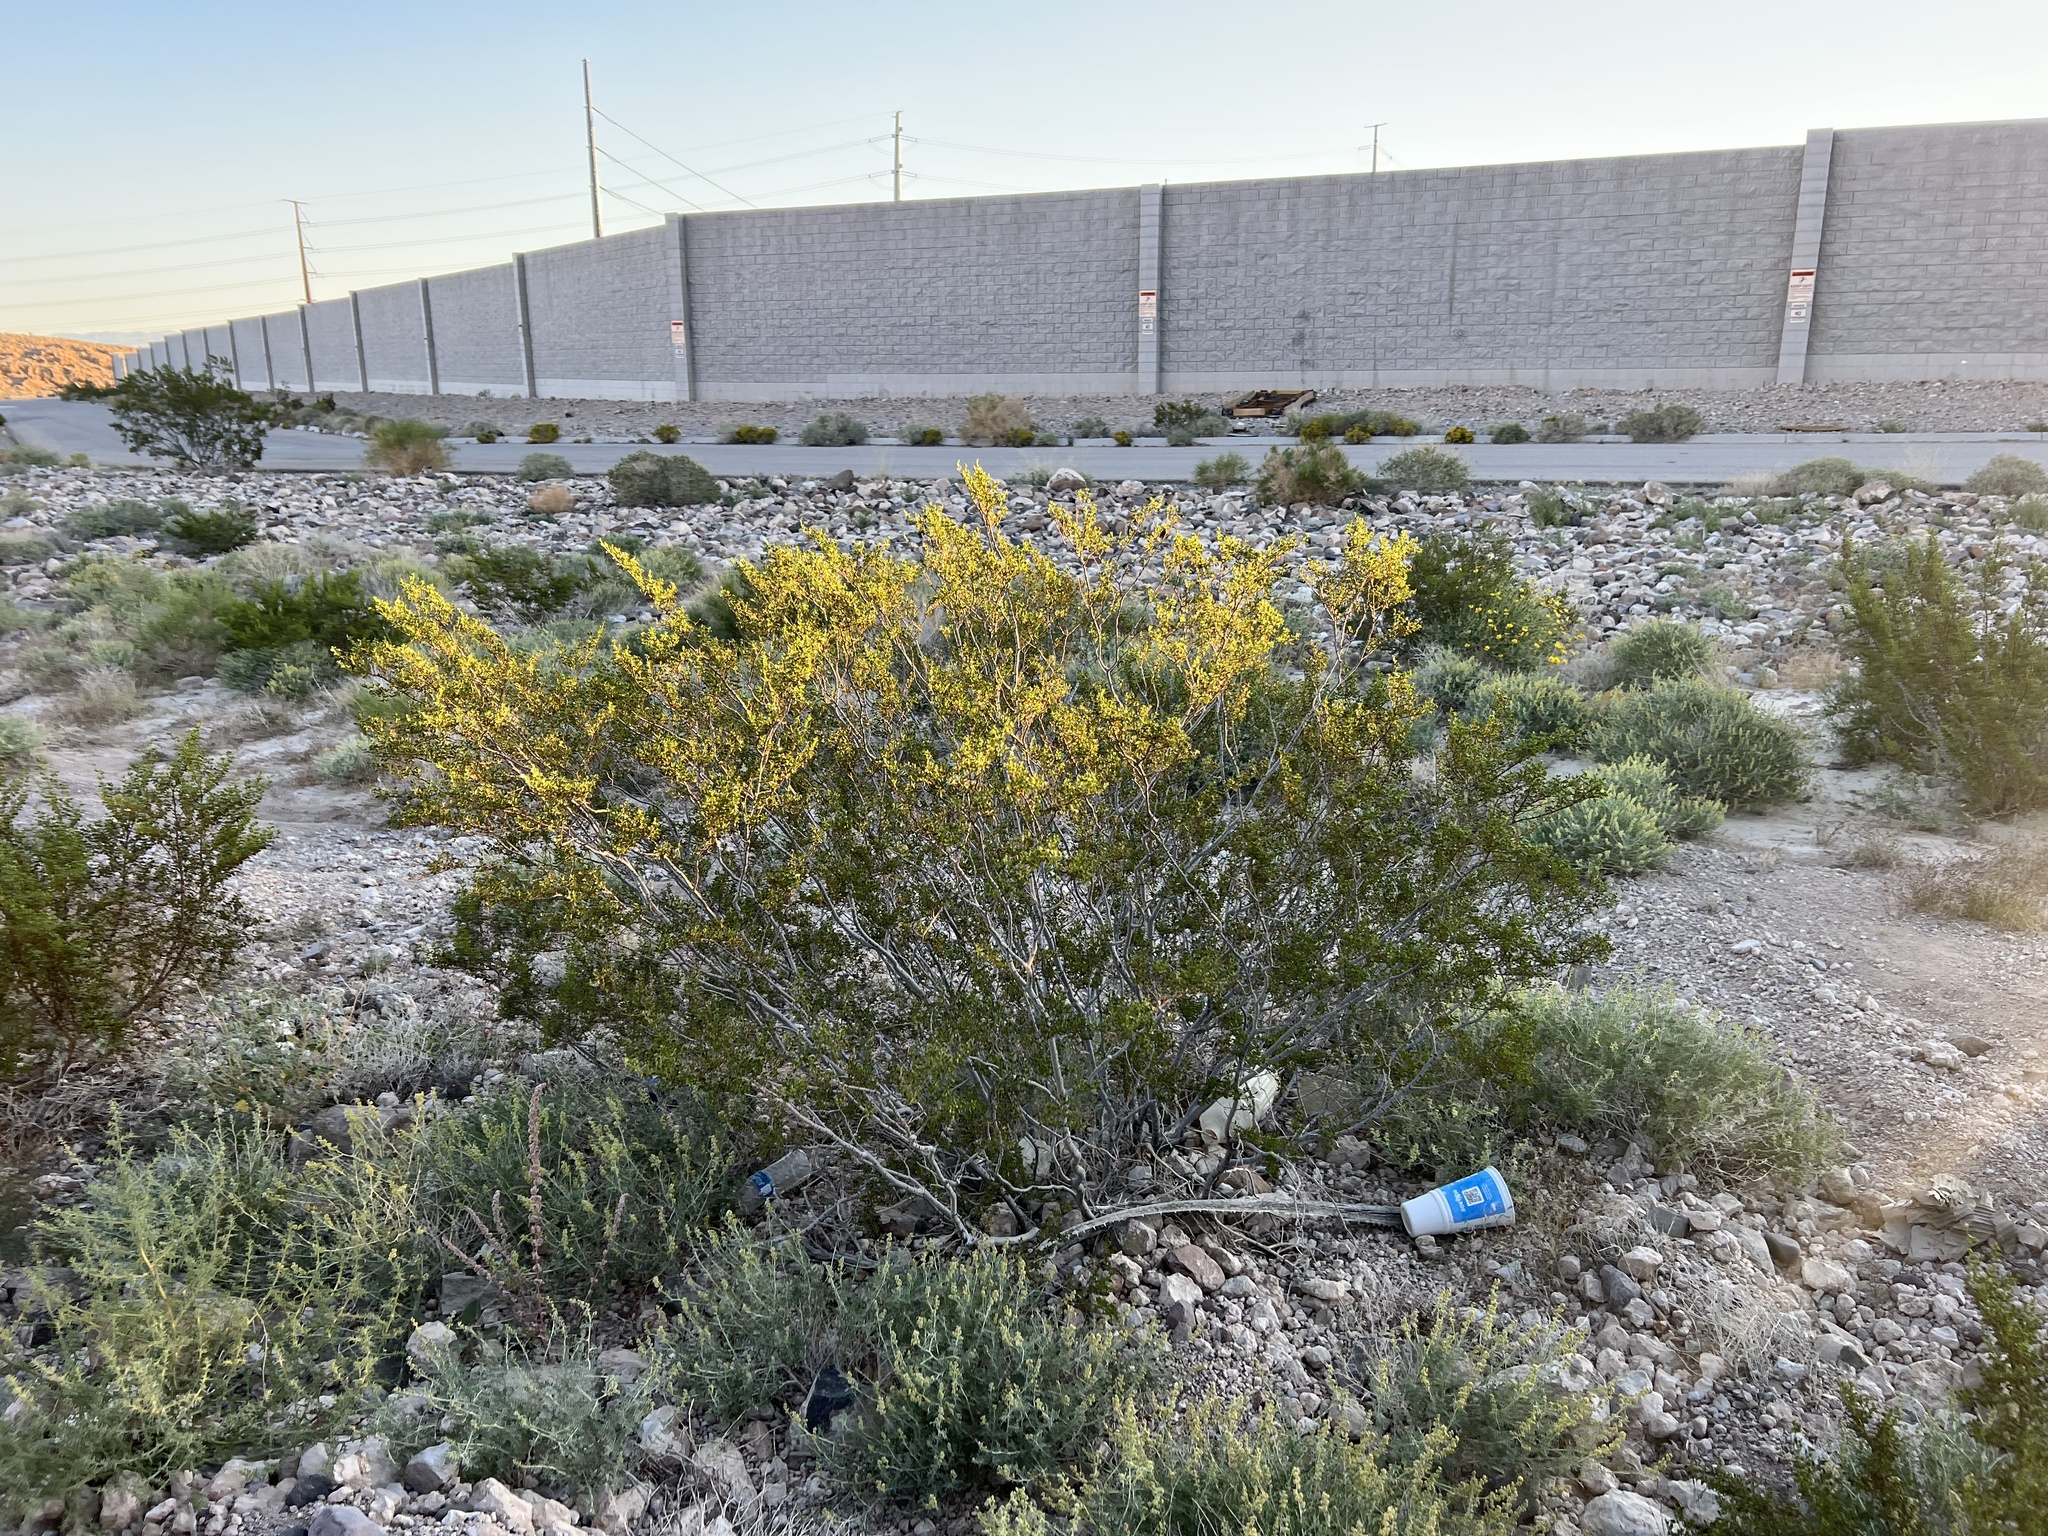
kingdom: Plantae
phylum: Tracheophyta
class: Magnoliopsida
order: Zygophyllales
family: Zygophyllaceae
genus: Larrea
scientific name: Larrea tridentata
